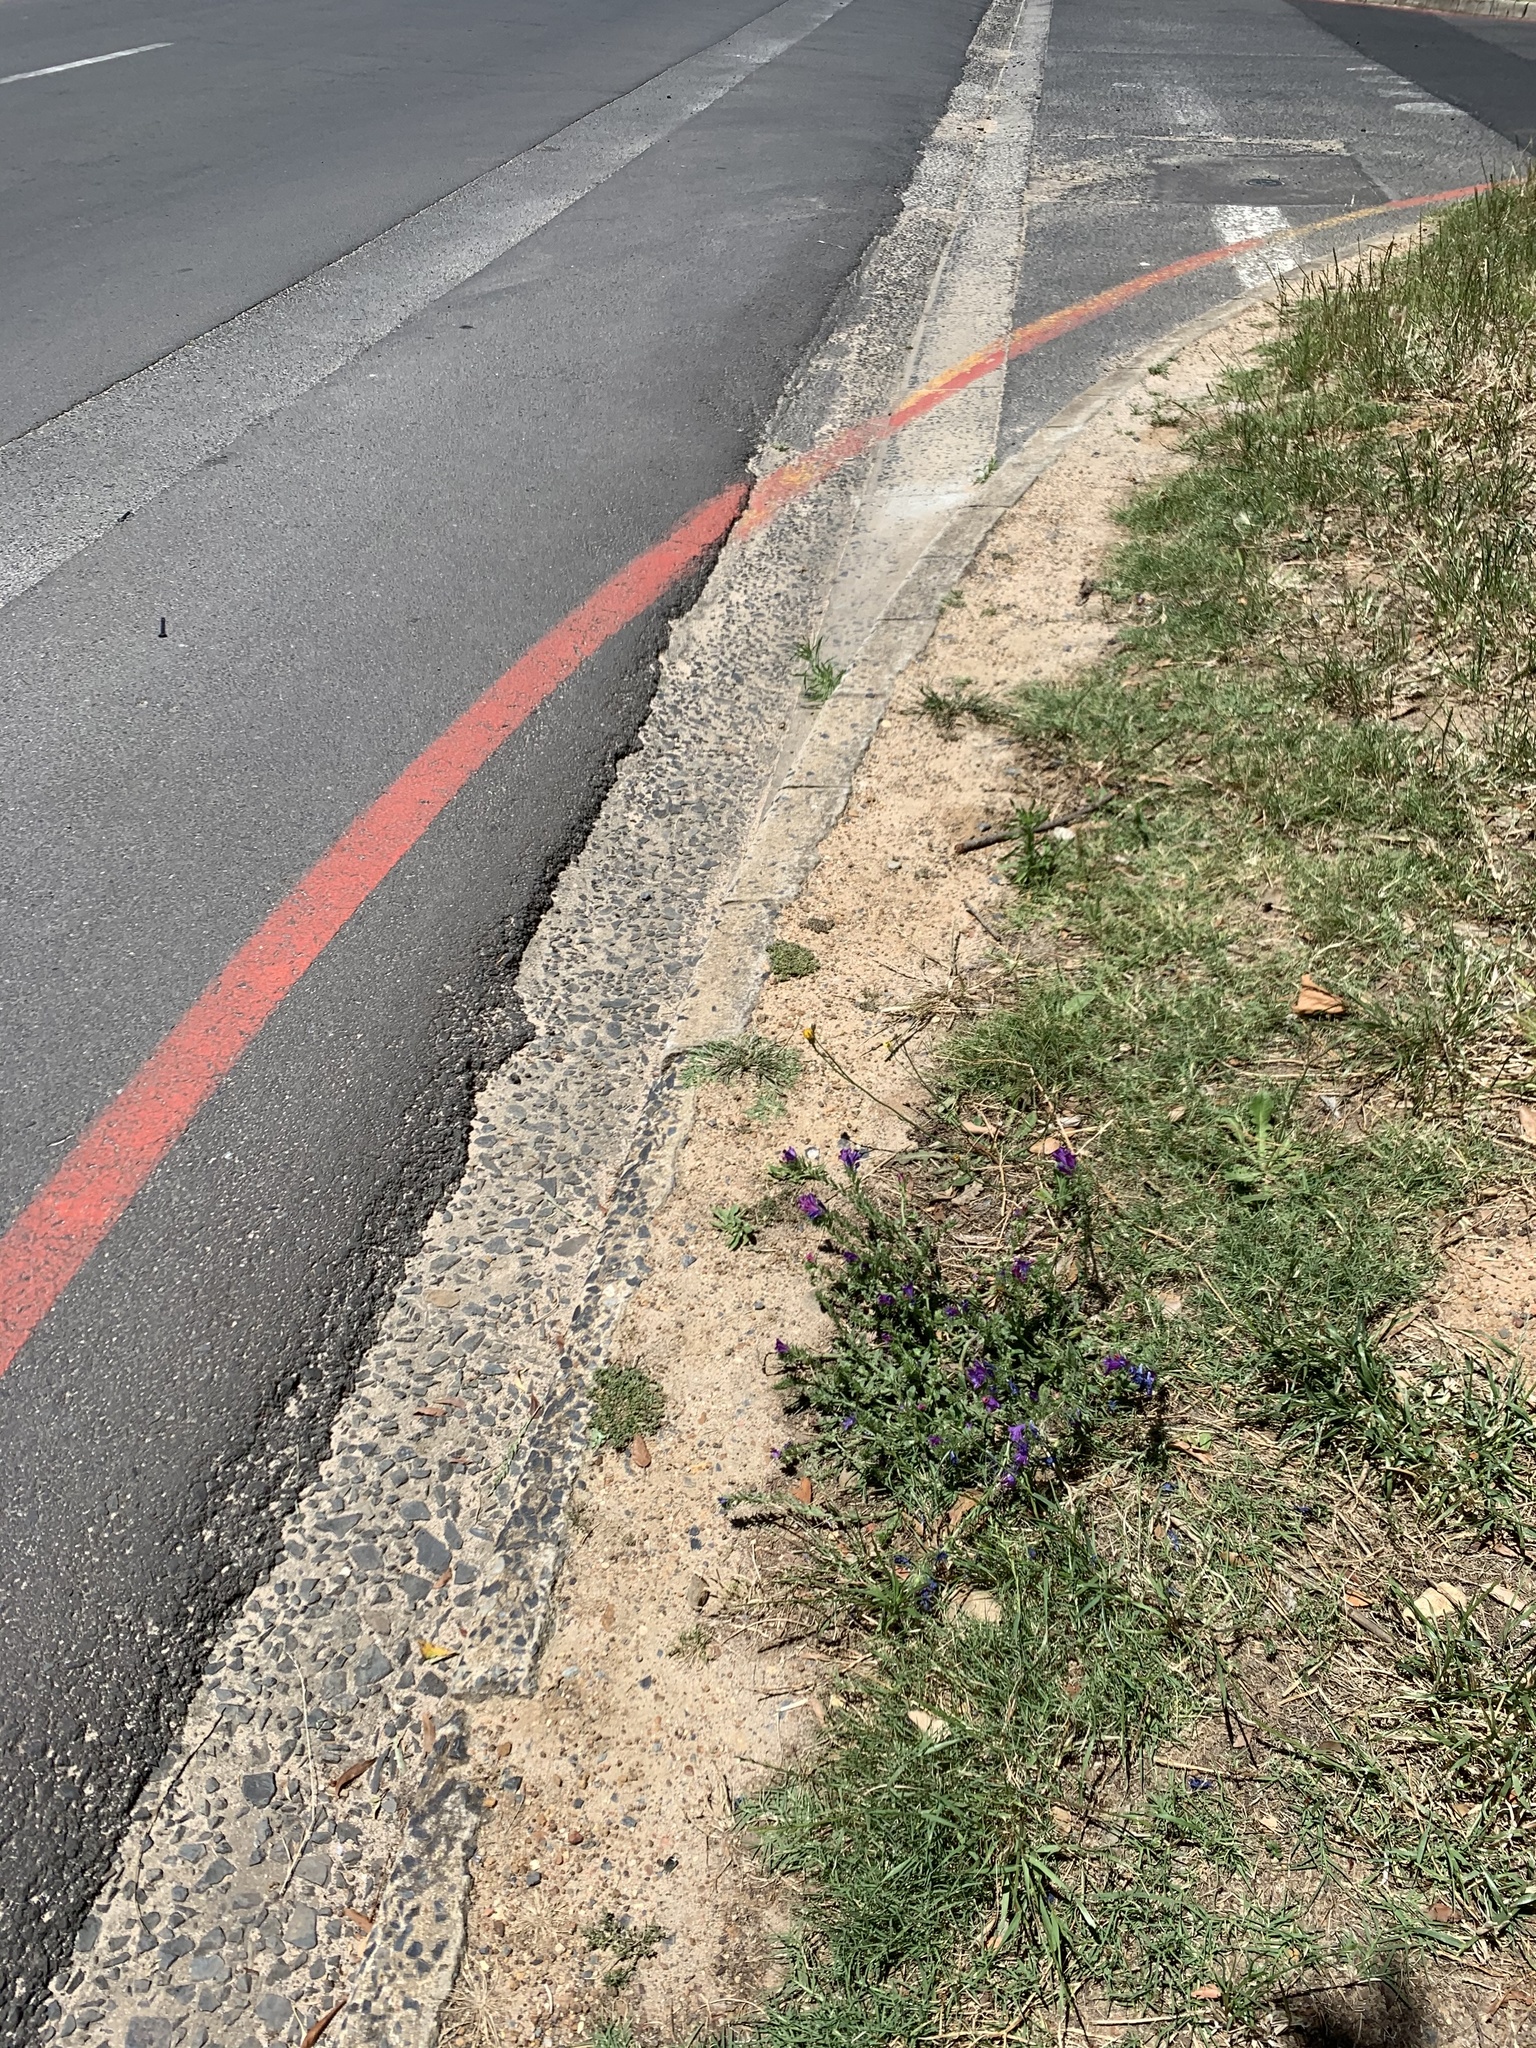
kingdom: Plantae
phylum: Tracheophyta
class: Magnoliopsida
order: Boraginales
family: Boraginaceae
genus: Echium
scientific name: Echium plantagineum
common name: Purple viper's-bugloss
